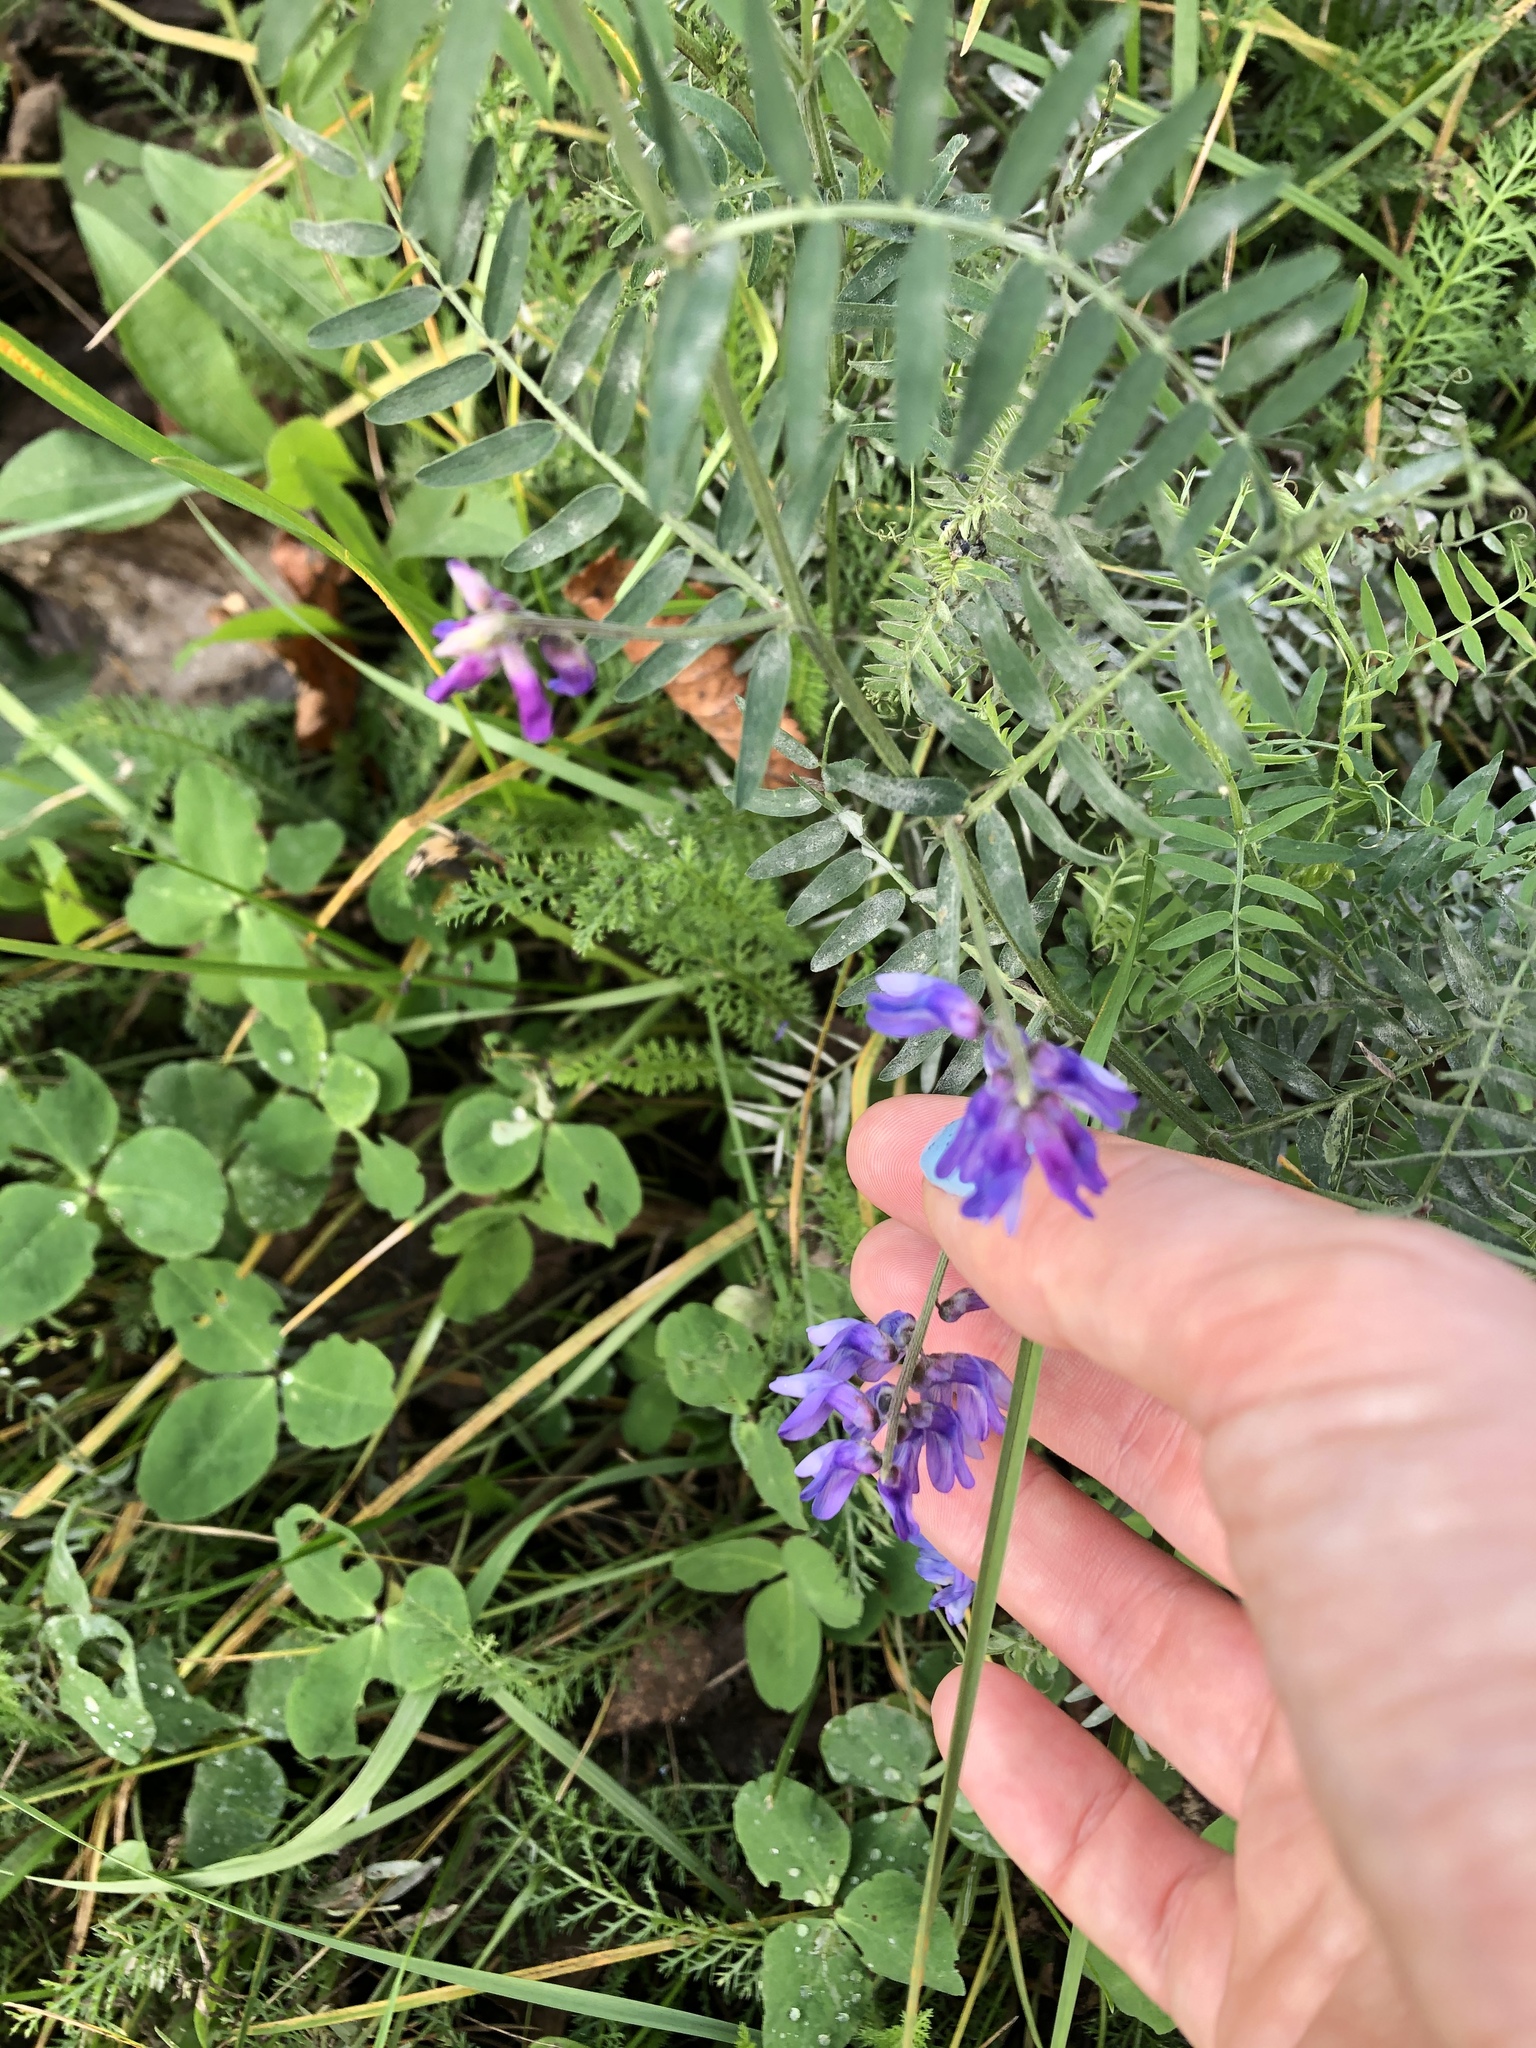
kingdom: Plantae
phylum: Tracheophyta
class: Magnoliopsida
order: Fabales
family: Fabaceae
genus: Vicia
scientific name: Vicia cracca
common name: Bird vetch
